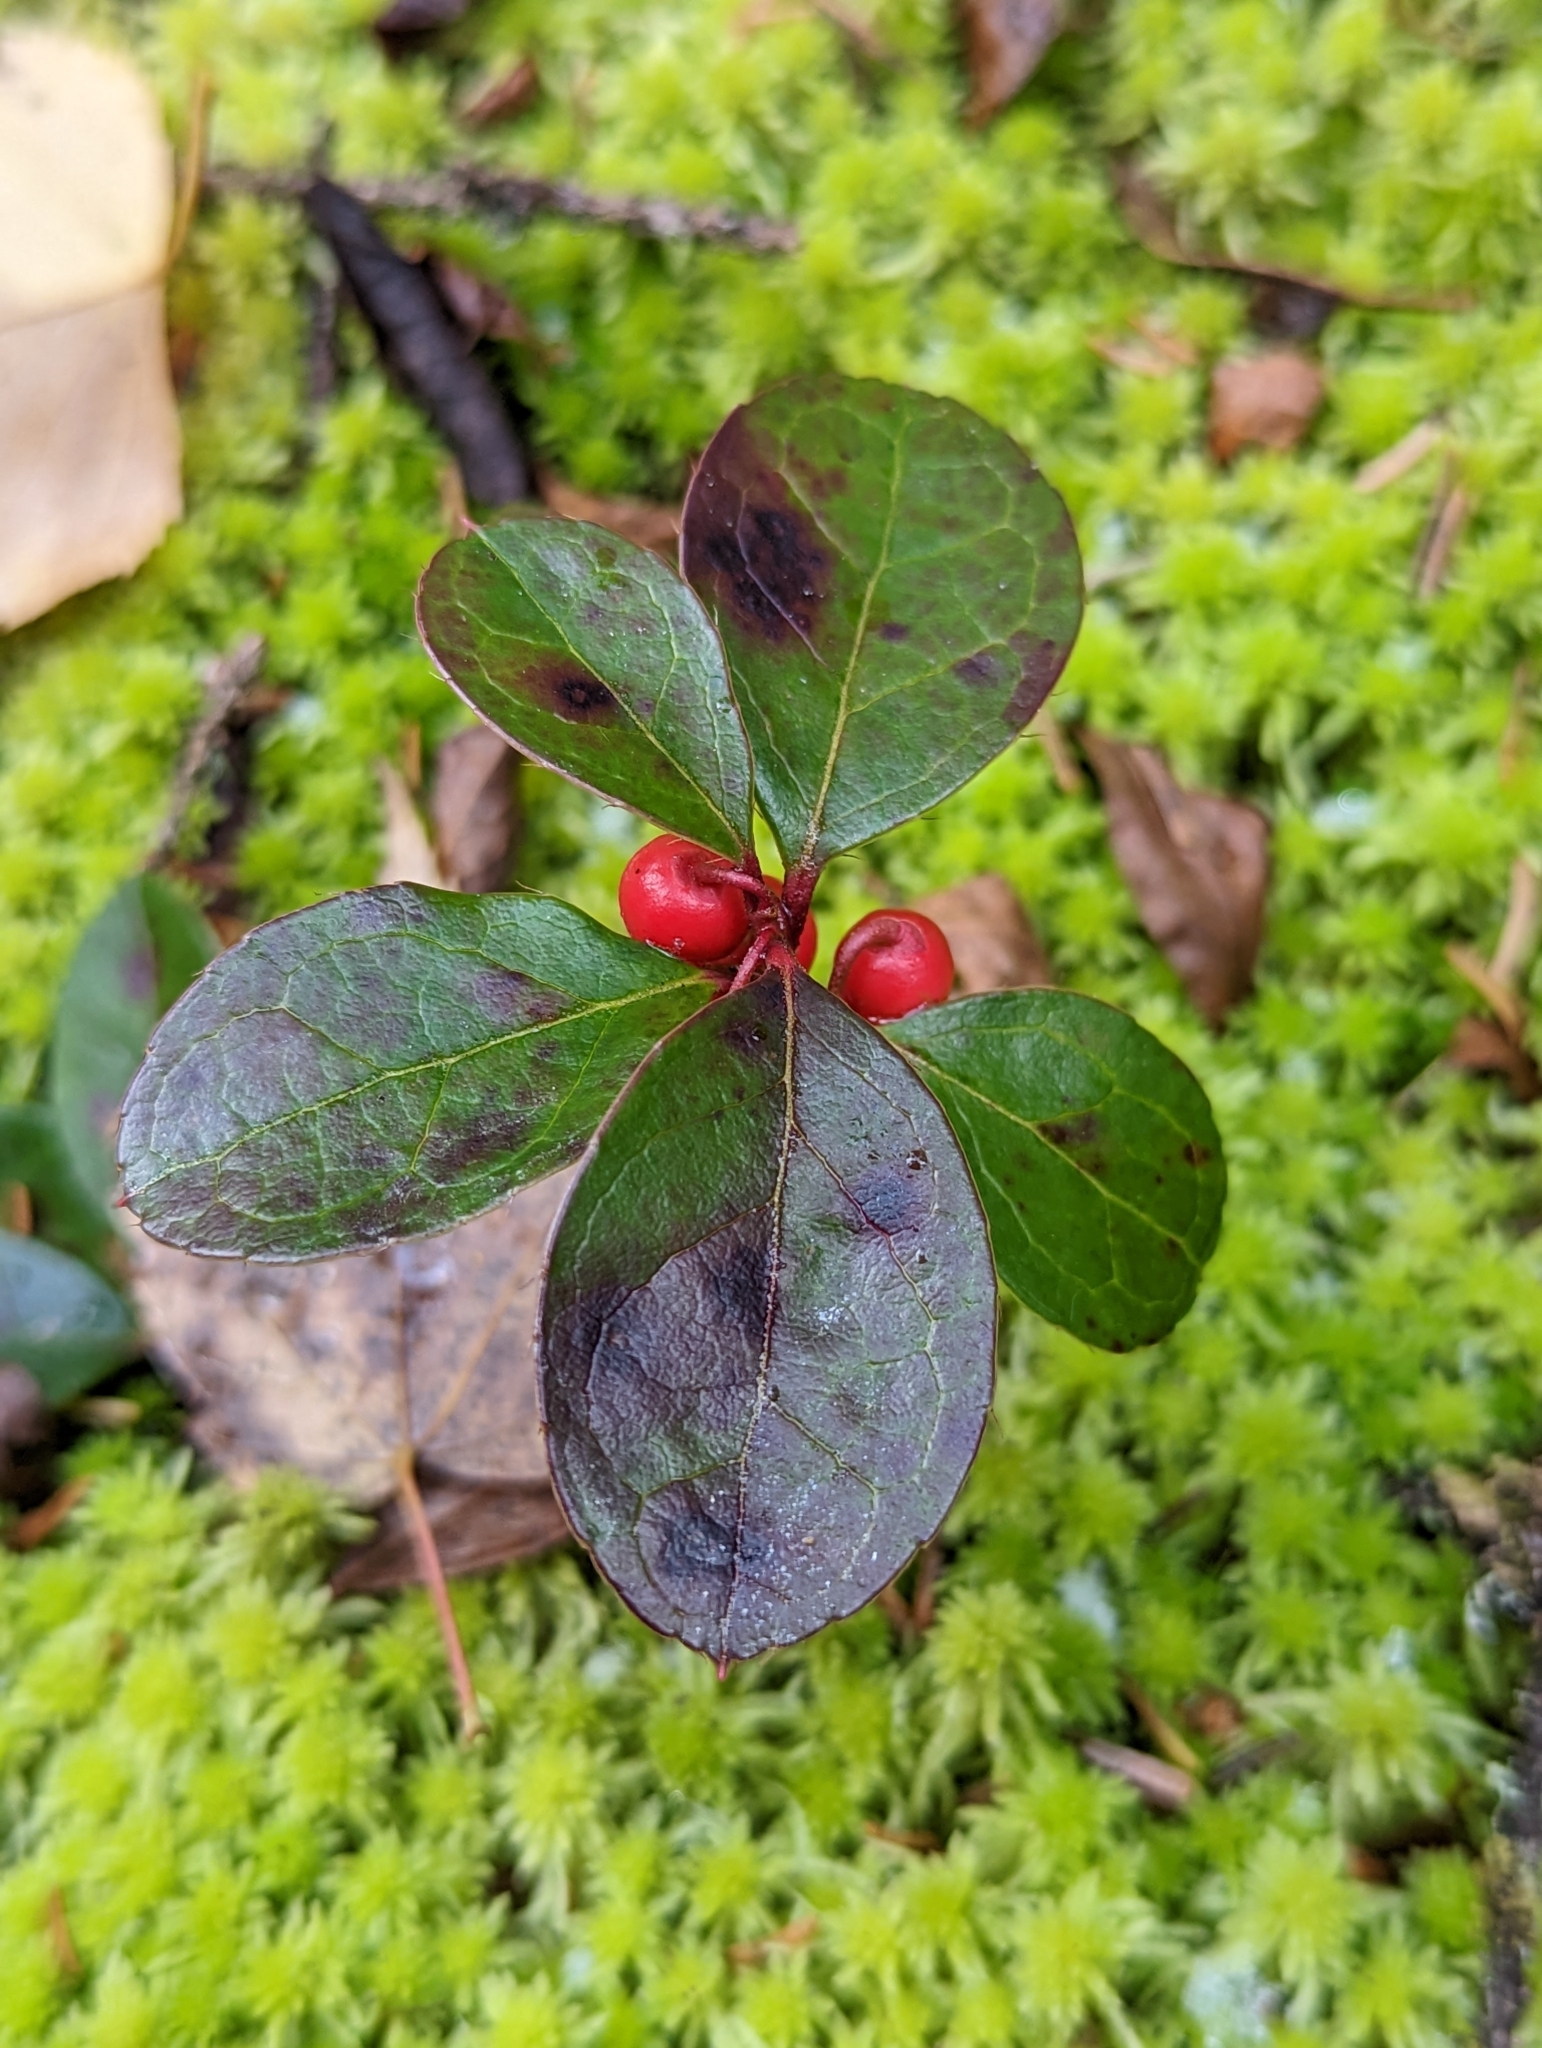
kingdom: Plantae
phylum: Tracheophyta
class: Magnoliopsida
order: Ericales
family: Ericaceae
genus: Gaultheria
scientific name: Gaultheria procumbens
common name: Checkerberry
